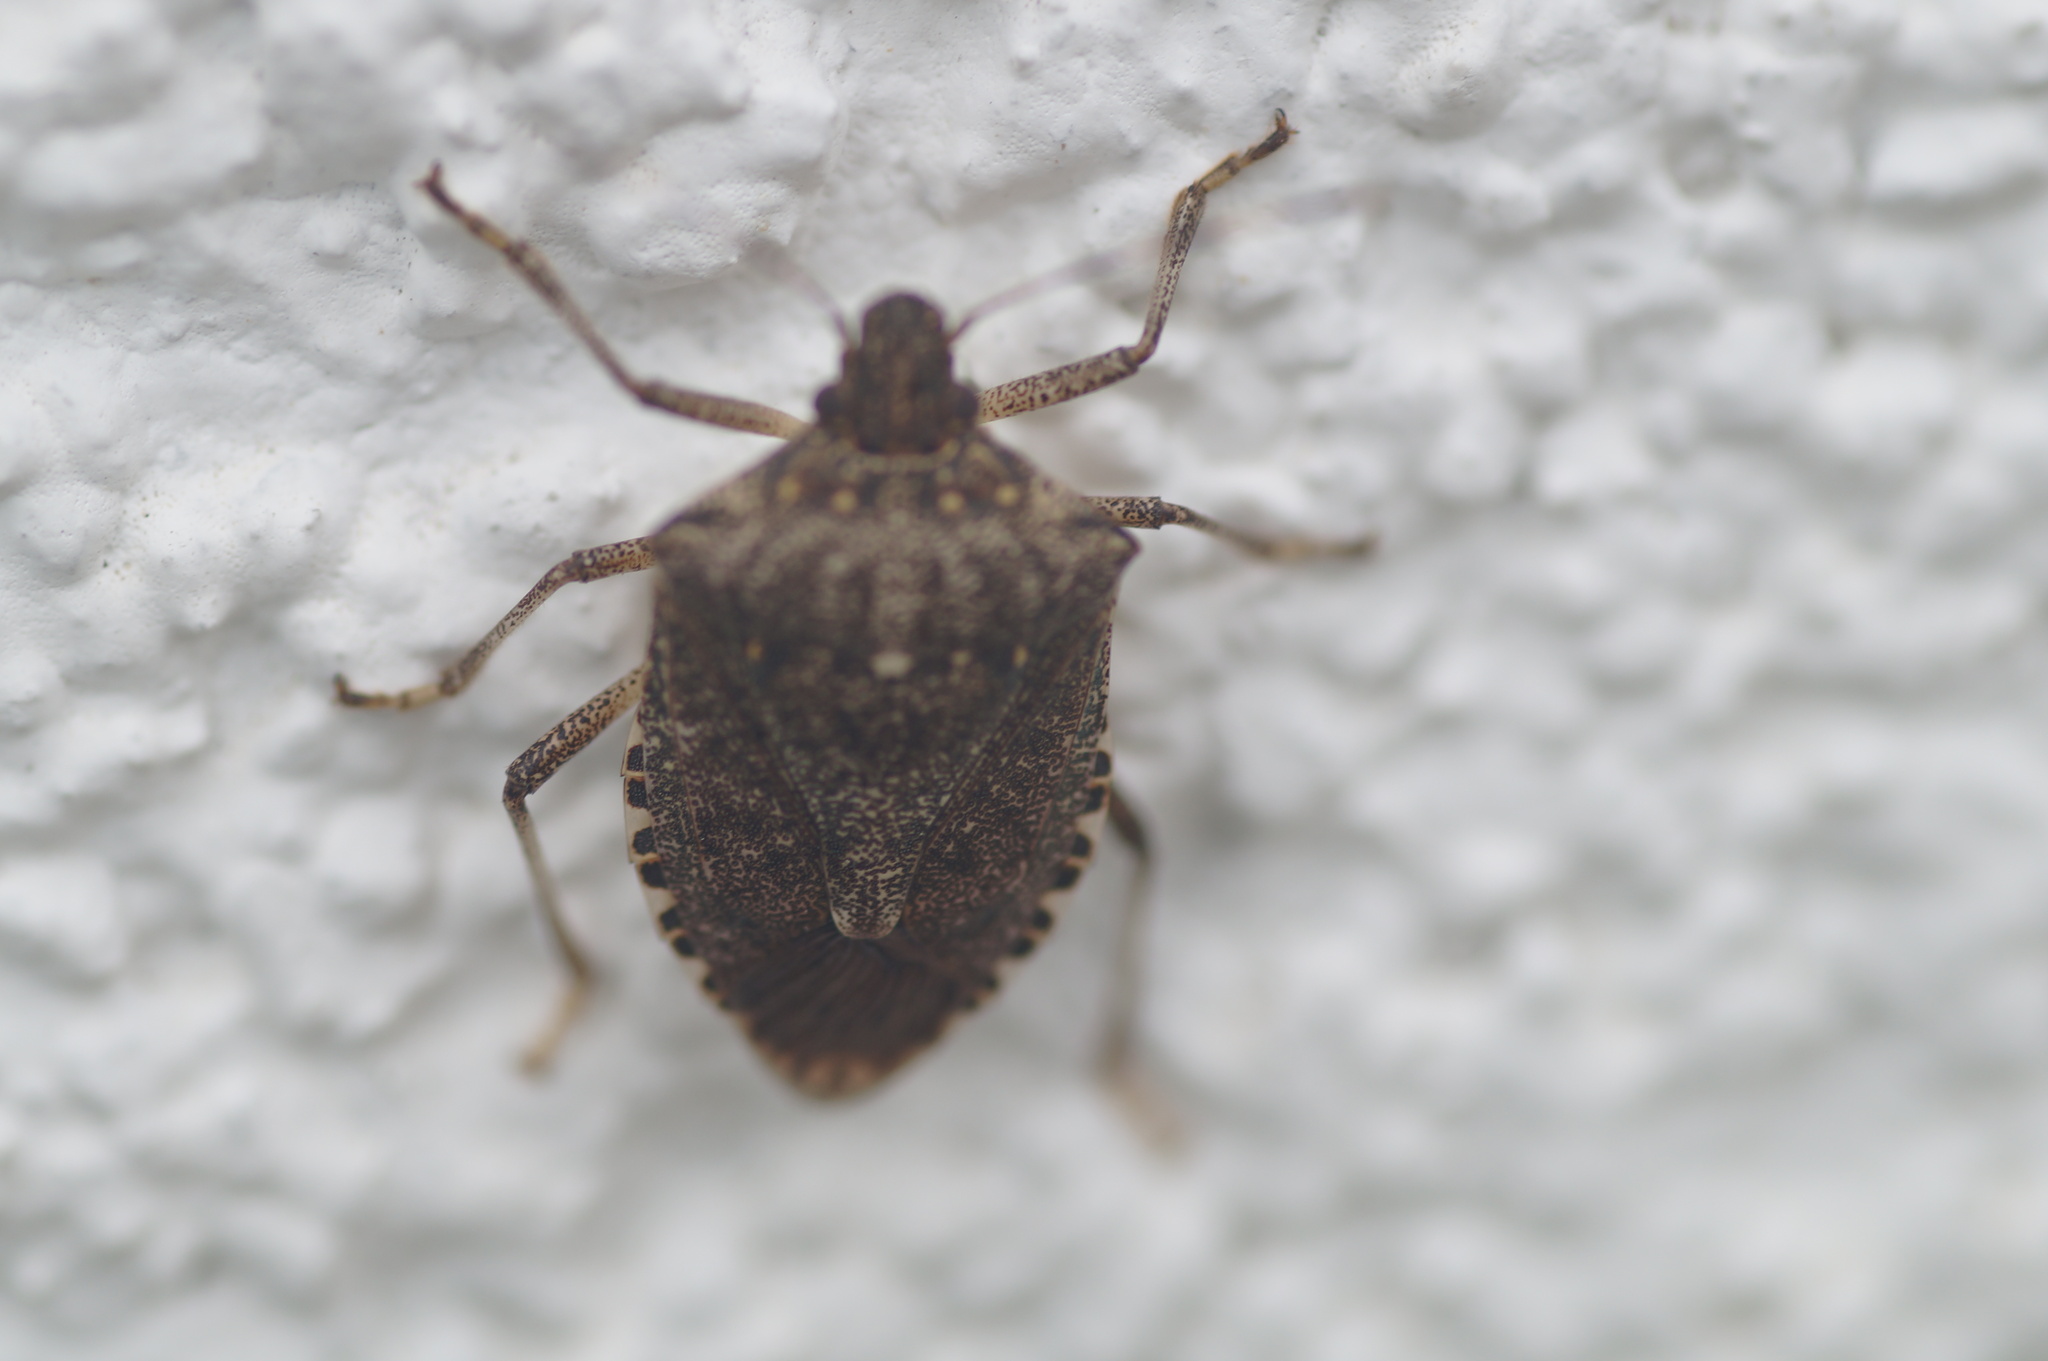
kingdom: Animalia
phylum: Arthropoda
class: Insecta
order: Hemiptera
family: Pentatomidae
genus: Halyomorpha
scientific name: Halyomorpha halys
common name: Brown marmorated stink bug
